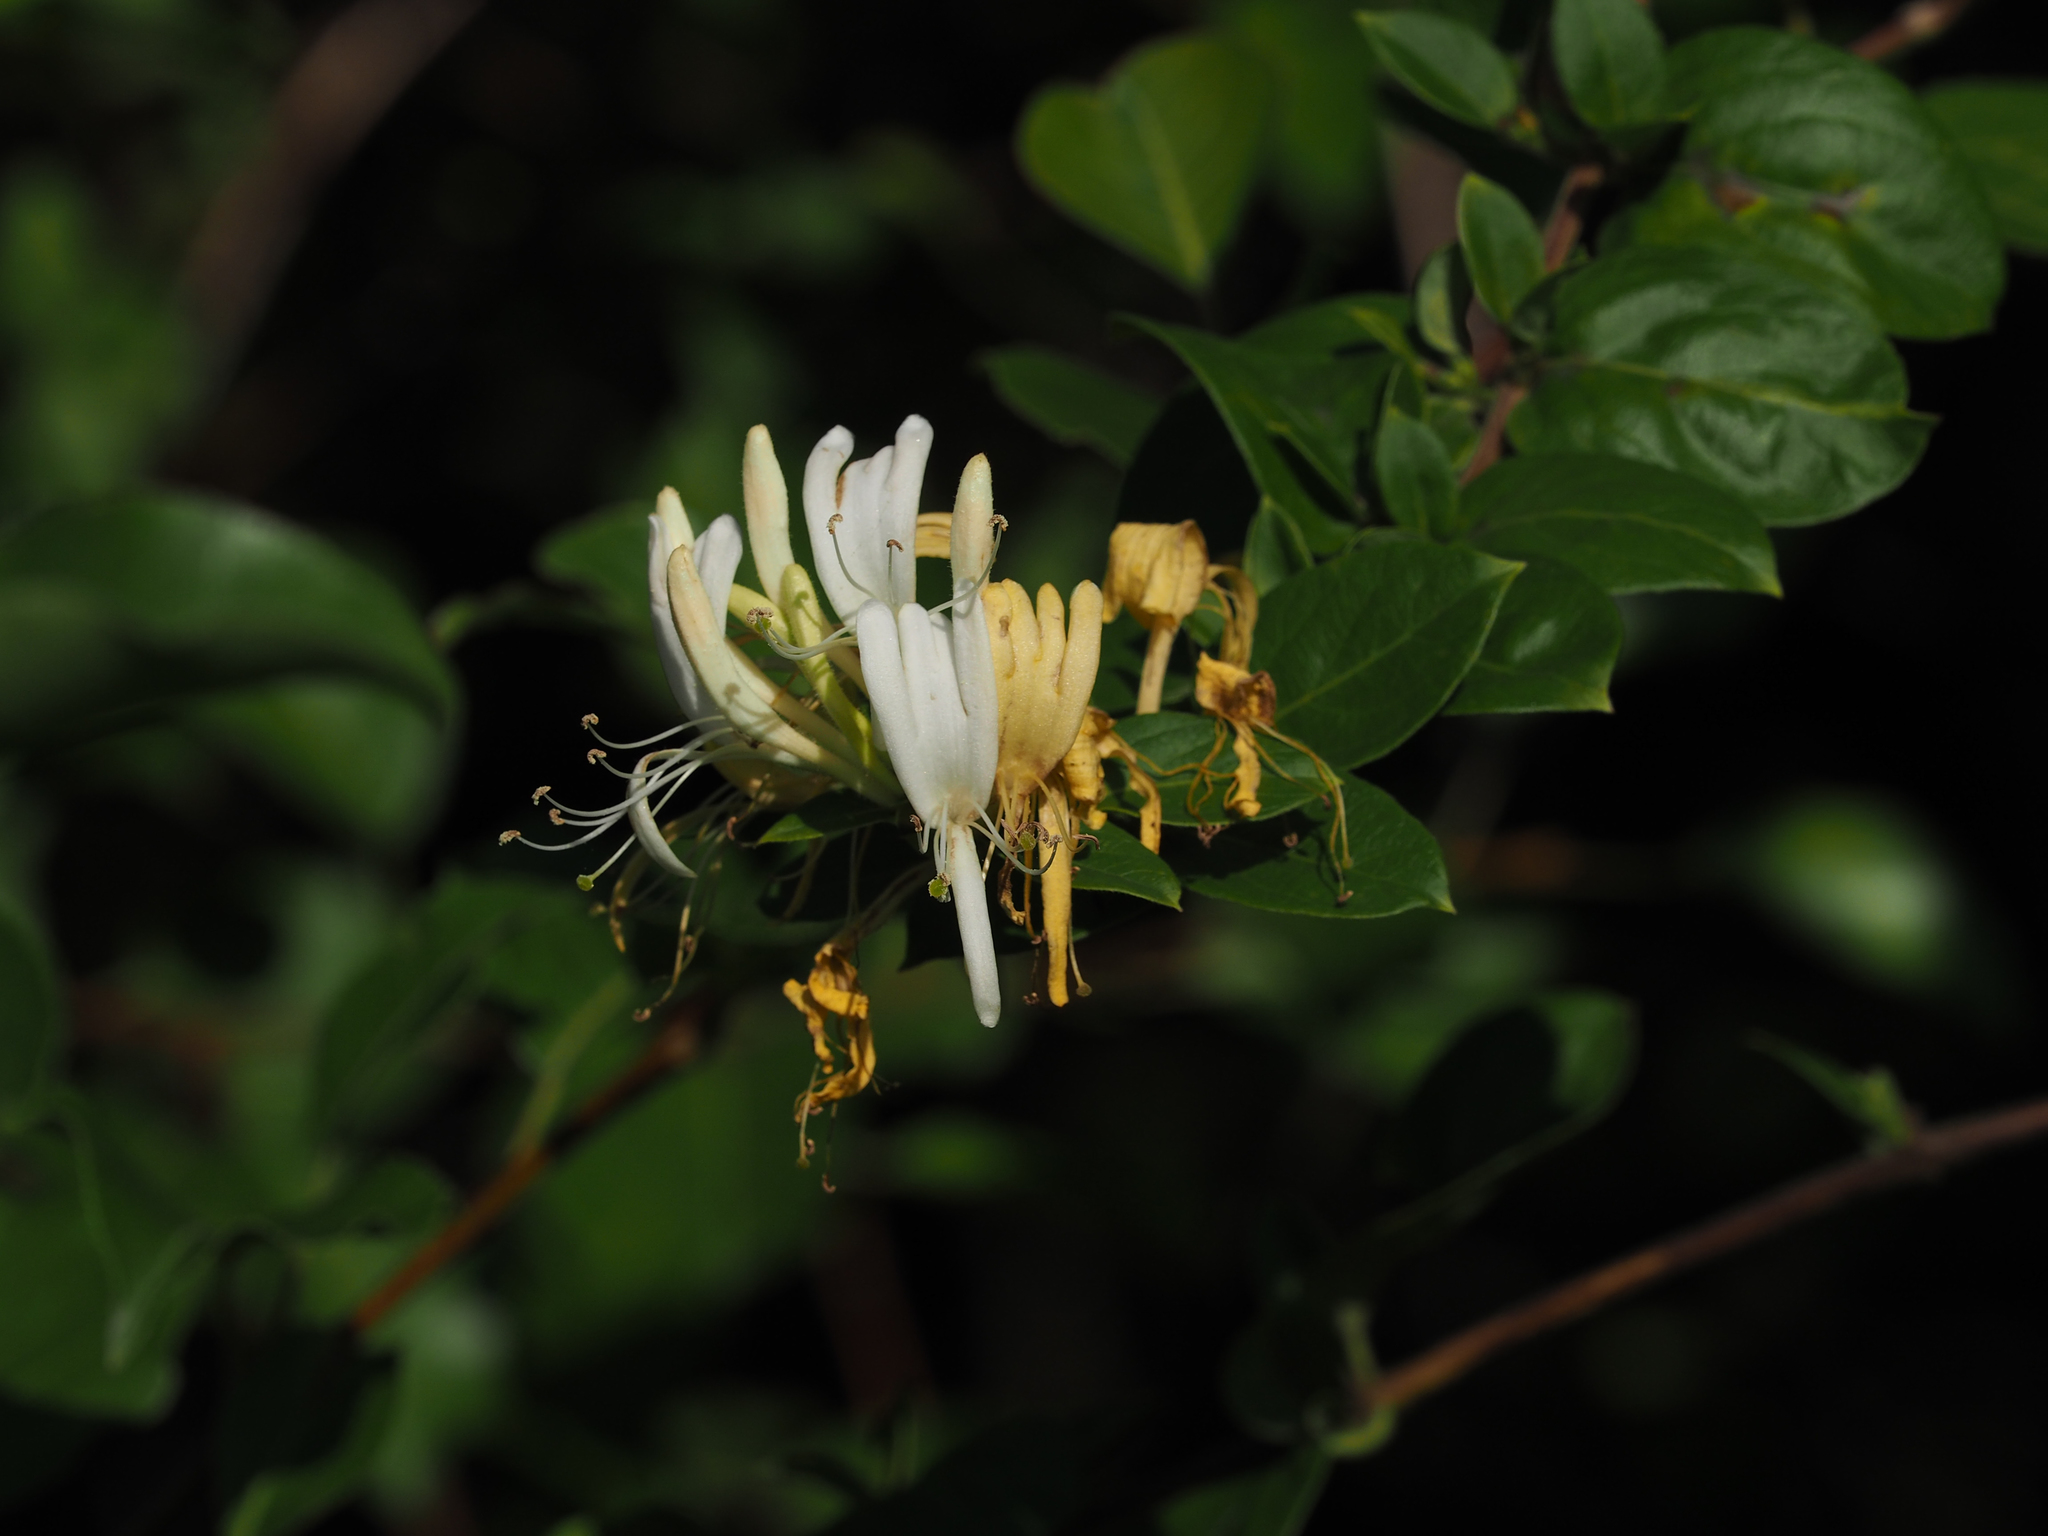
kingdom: Plantae
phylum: Tracheophyta
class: Magnoliopsida
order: Dipsacales
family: Caprifoliaceae
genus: Lonicera
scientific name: Lonicera japonica
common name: Japanese honeysuckle
